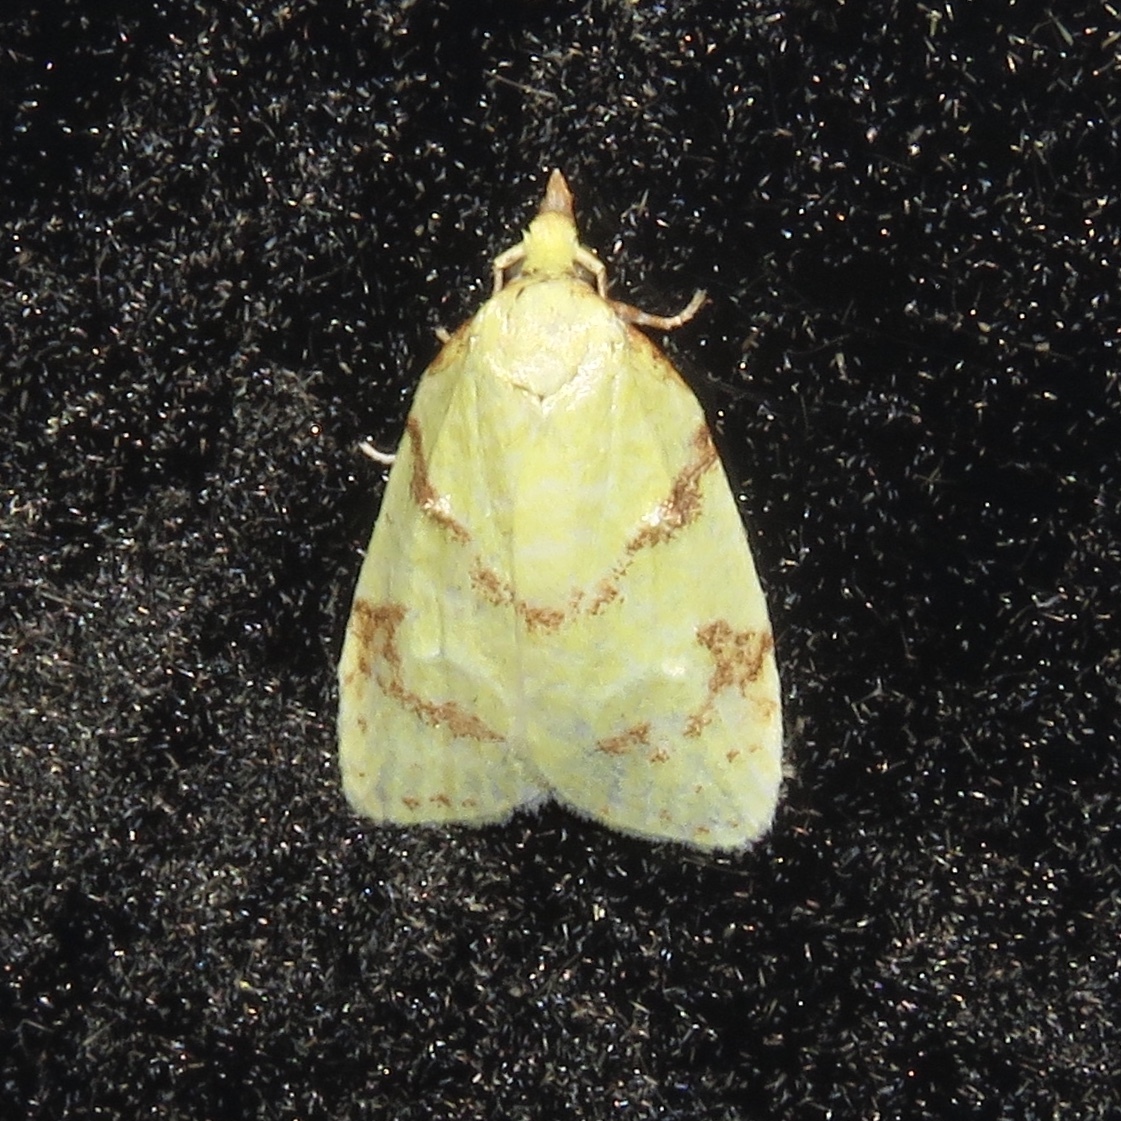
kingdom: Animalia
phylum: Arthropoda
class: Insecta
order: Lepidoptera
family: Tortricidae
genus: Cenopis
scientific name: Cenopis pettitana
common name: Maple-basswood leafroller moth
